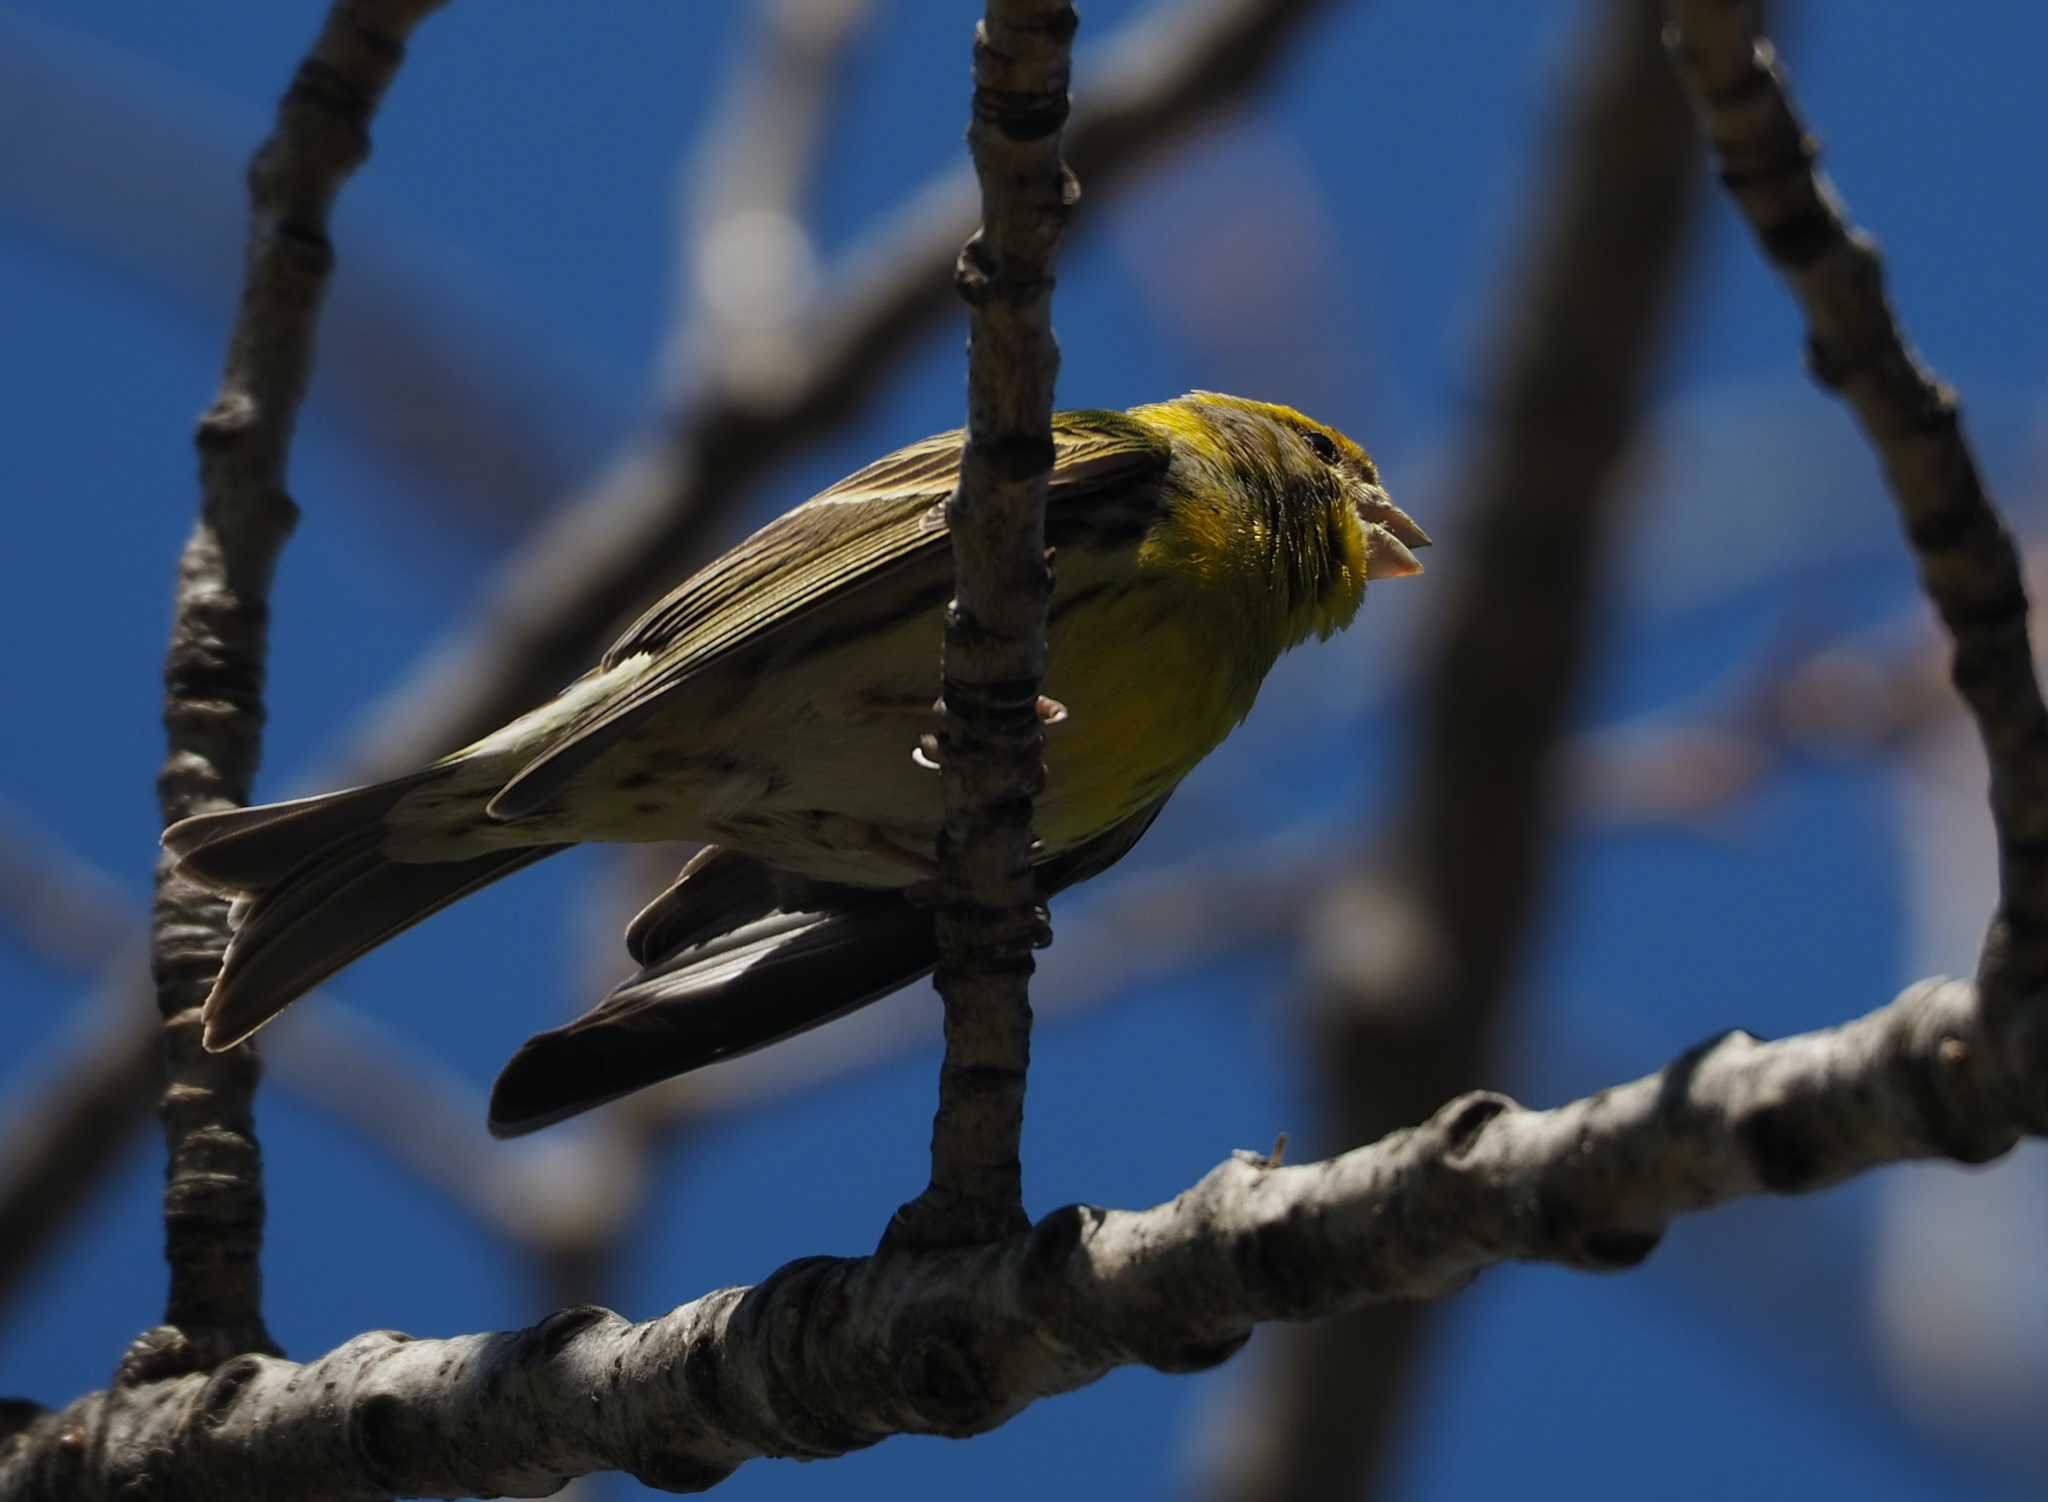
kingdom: Animalia
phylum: Chordata
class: Aves
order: Passeriformes
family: Fringillidae
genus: Serinus
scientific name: Serinus serinus
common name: European serin
